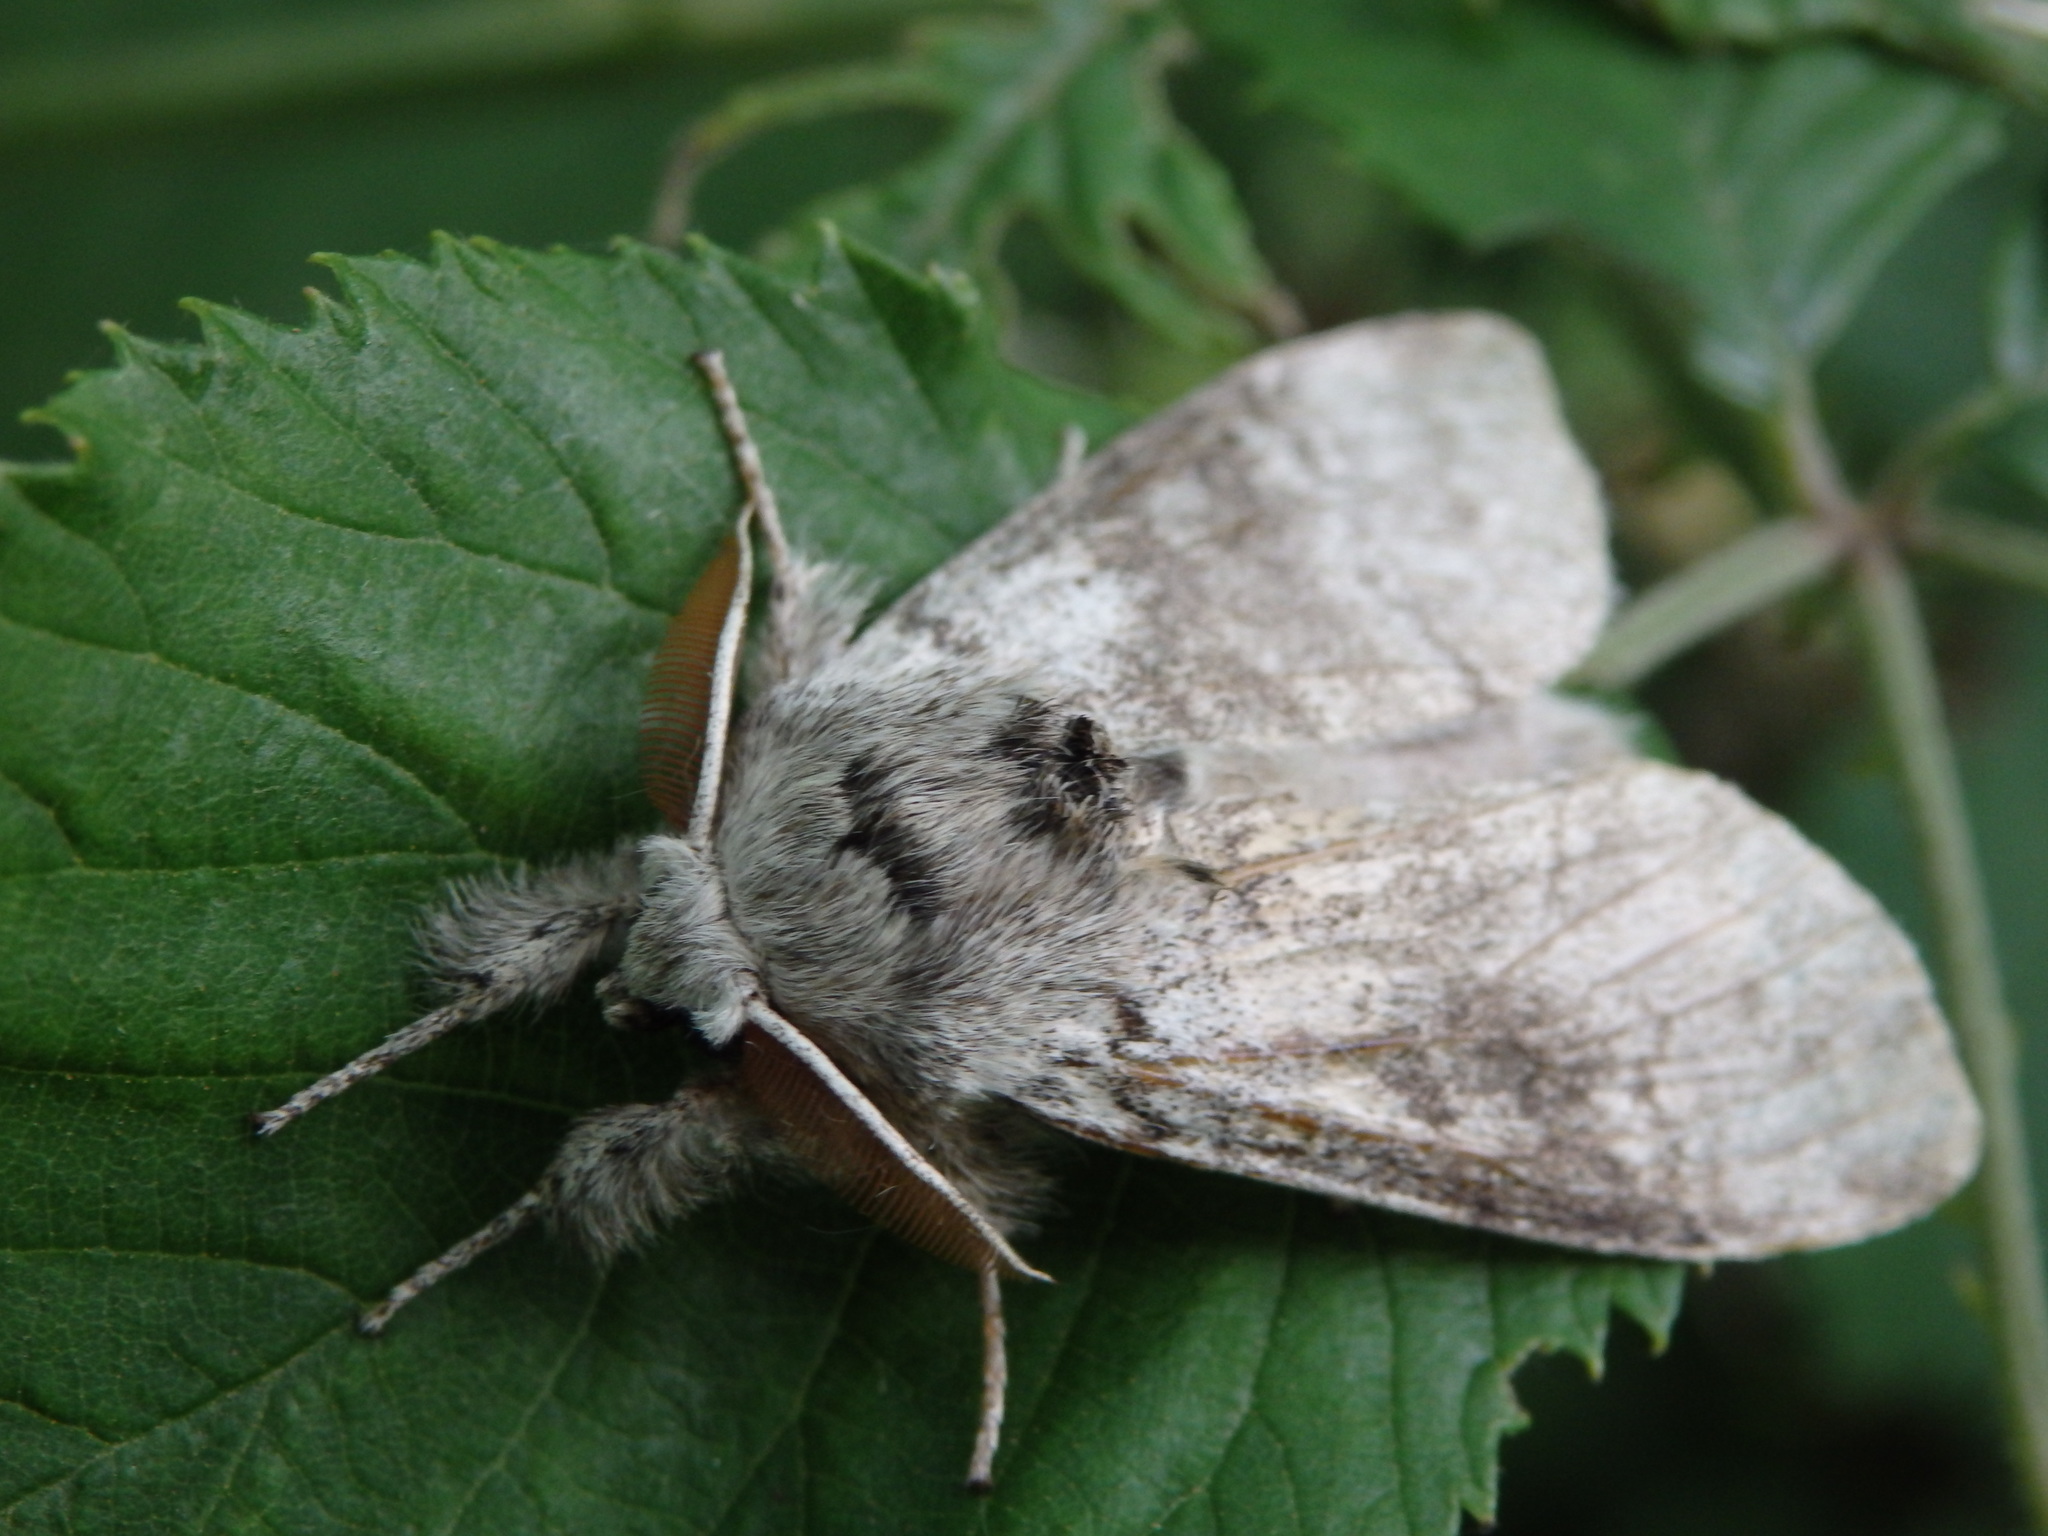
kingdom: Animalia
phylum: Arthropoda
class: Insecta
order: Lepidoptera
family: Erebidae
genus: Calliteara
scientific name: Calliteara pudibunda
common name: Pale tussock
